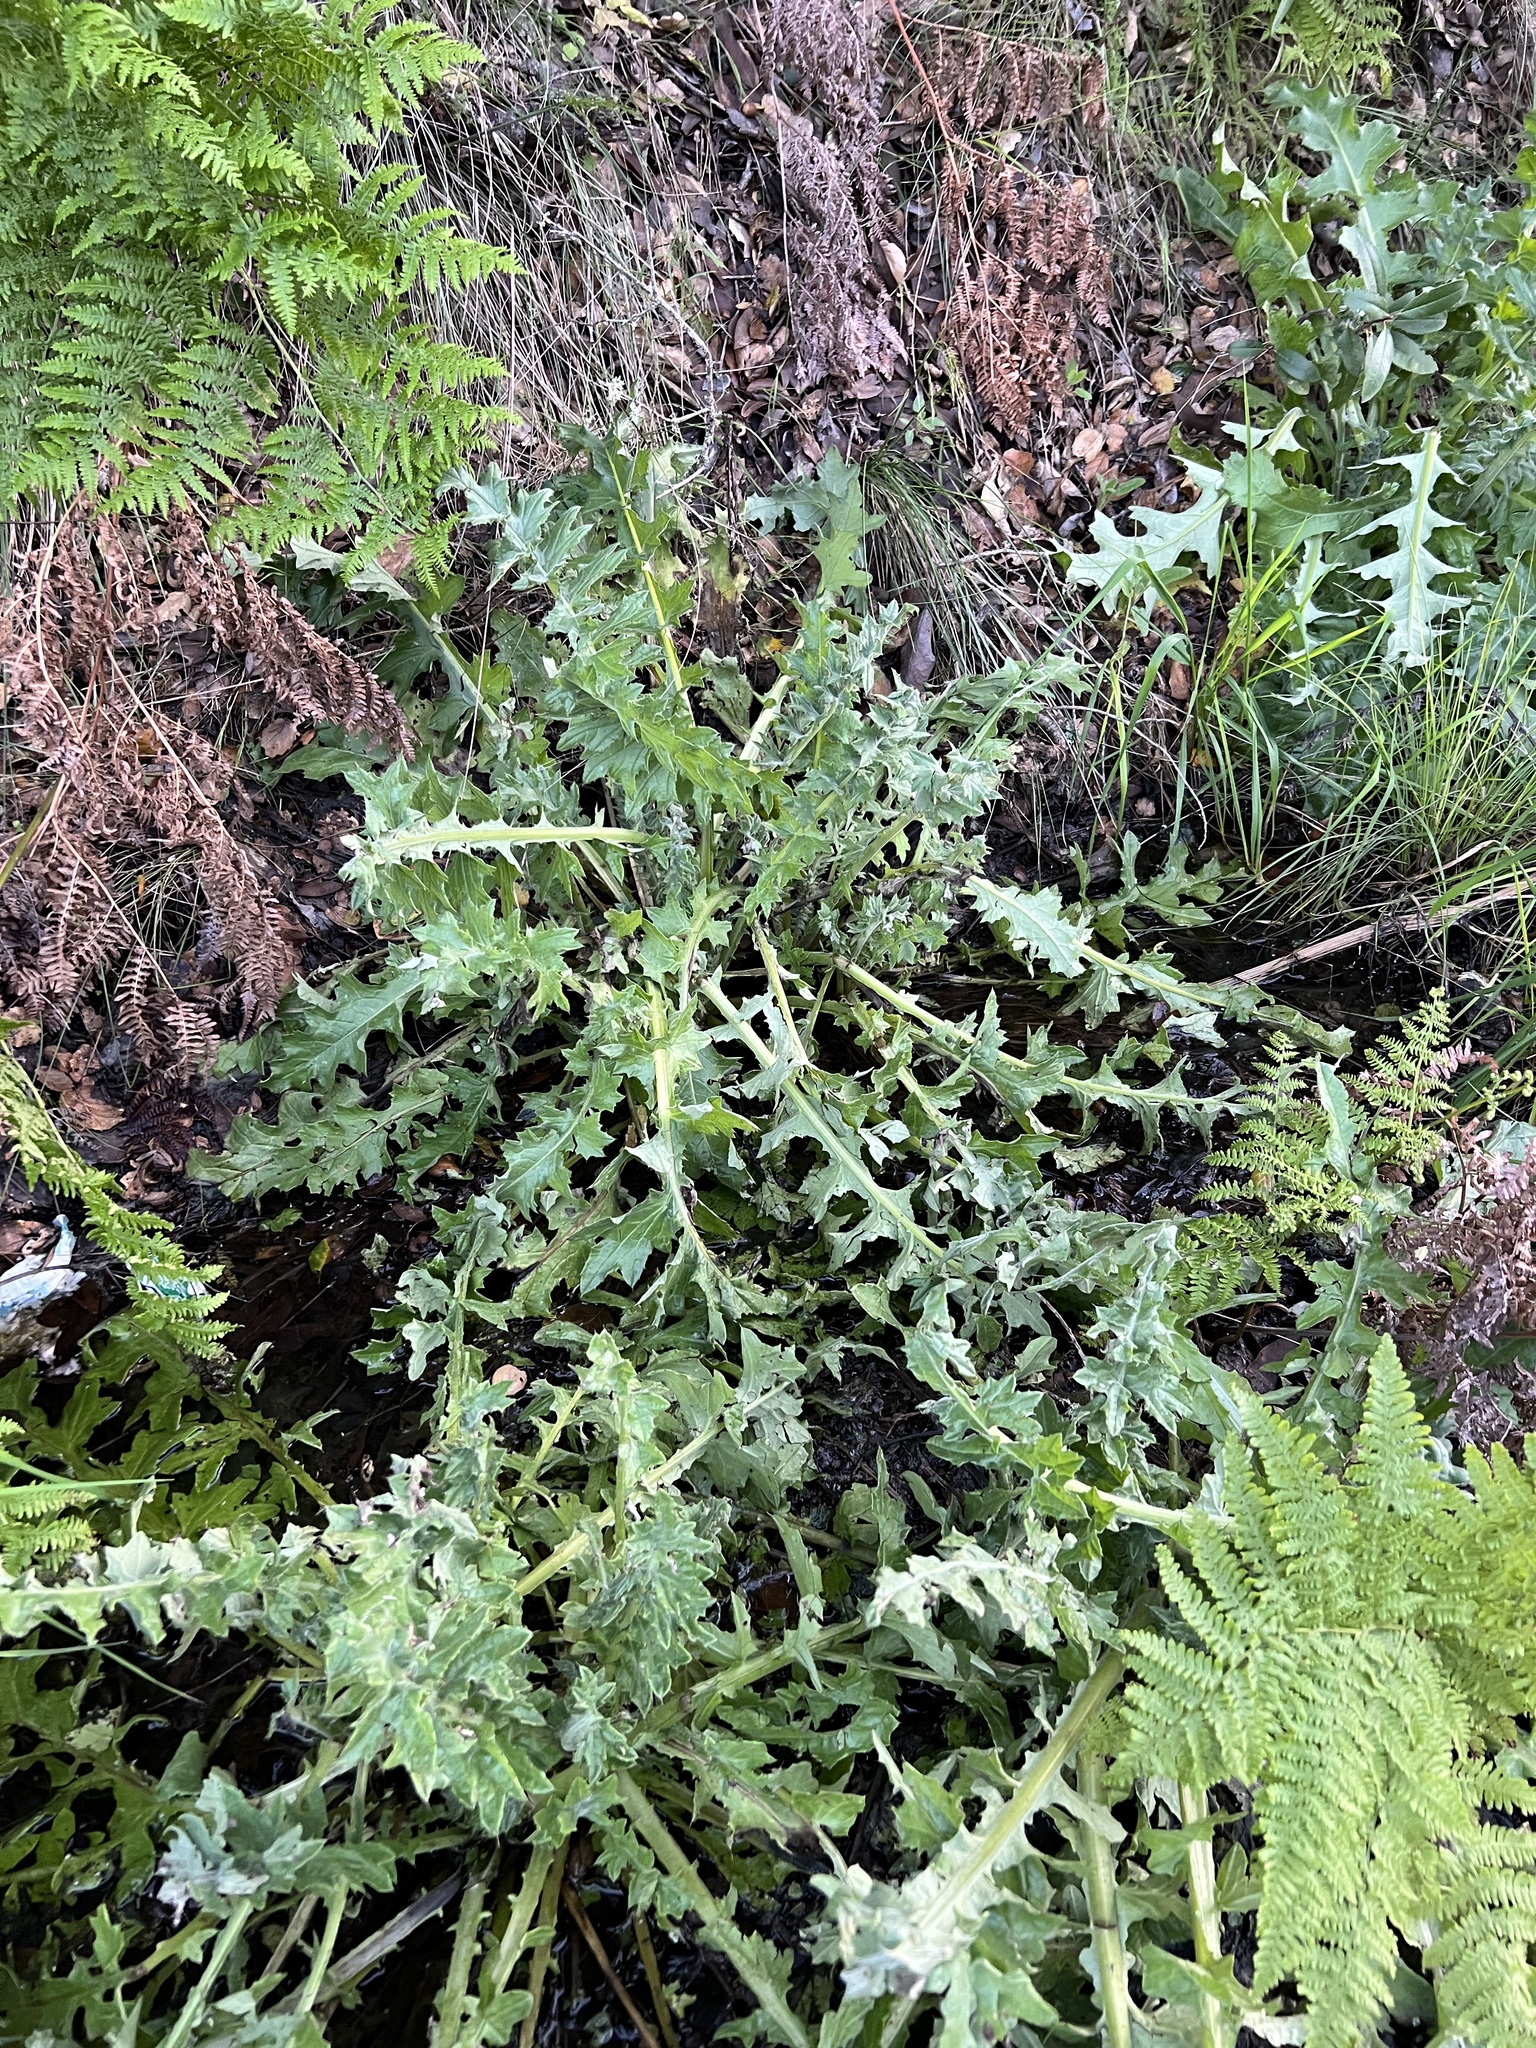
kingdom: Plantae
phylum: Tracheophyta
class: Magnoliopsida
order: Asterales
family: Asteraceae
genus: Cirsium
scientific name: Cirsium fontinale
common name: Fountain thistle
